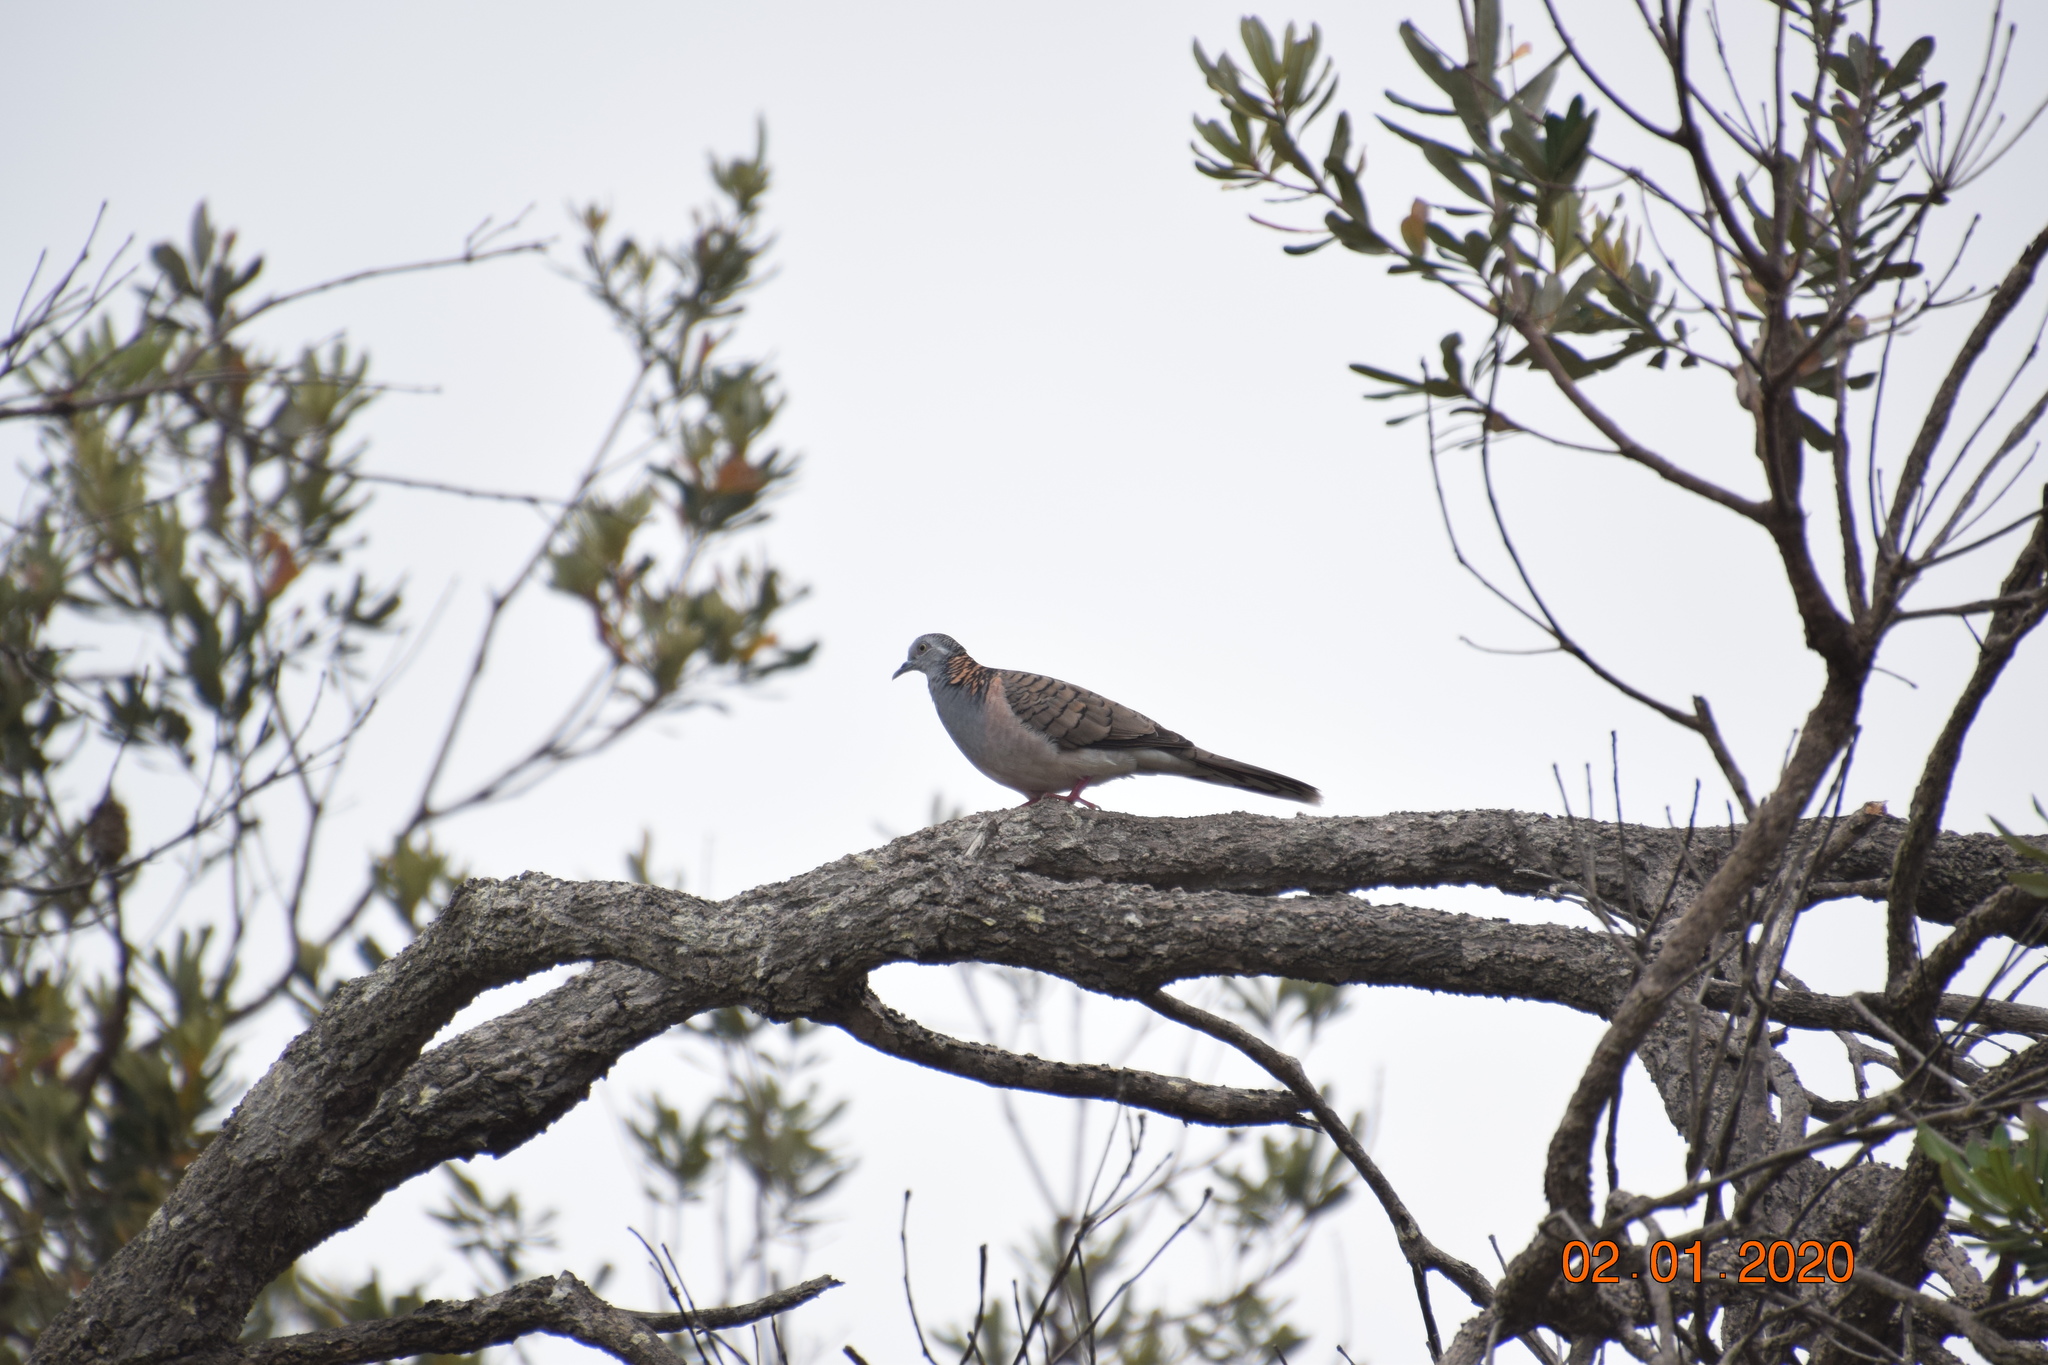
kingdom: Animalia
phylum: Chordata
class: Aves
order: Columbiformes
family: Columbidae
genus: Geopelia
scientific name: Geopelia humeralis
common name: Bar-shouldered dove
